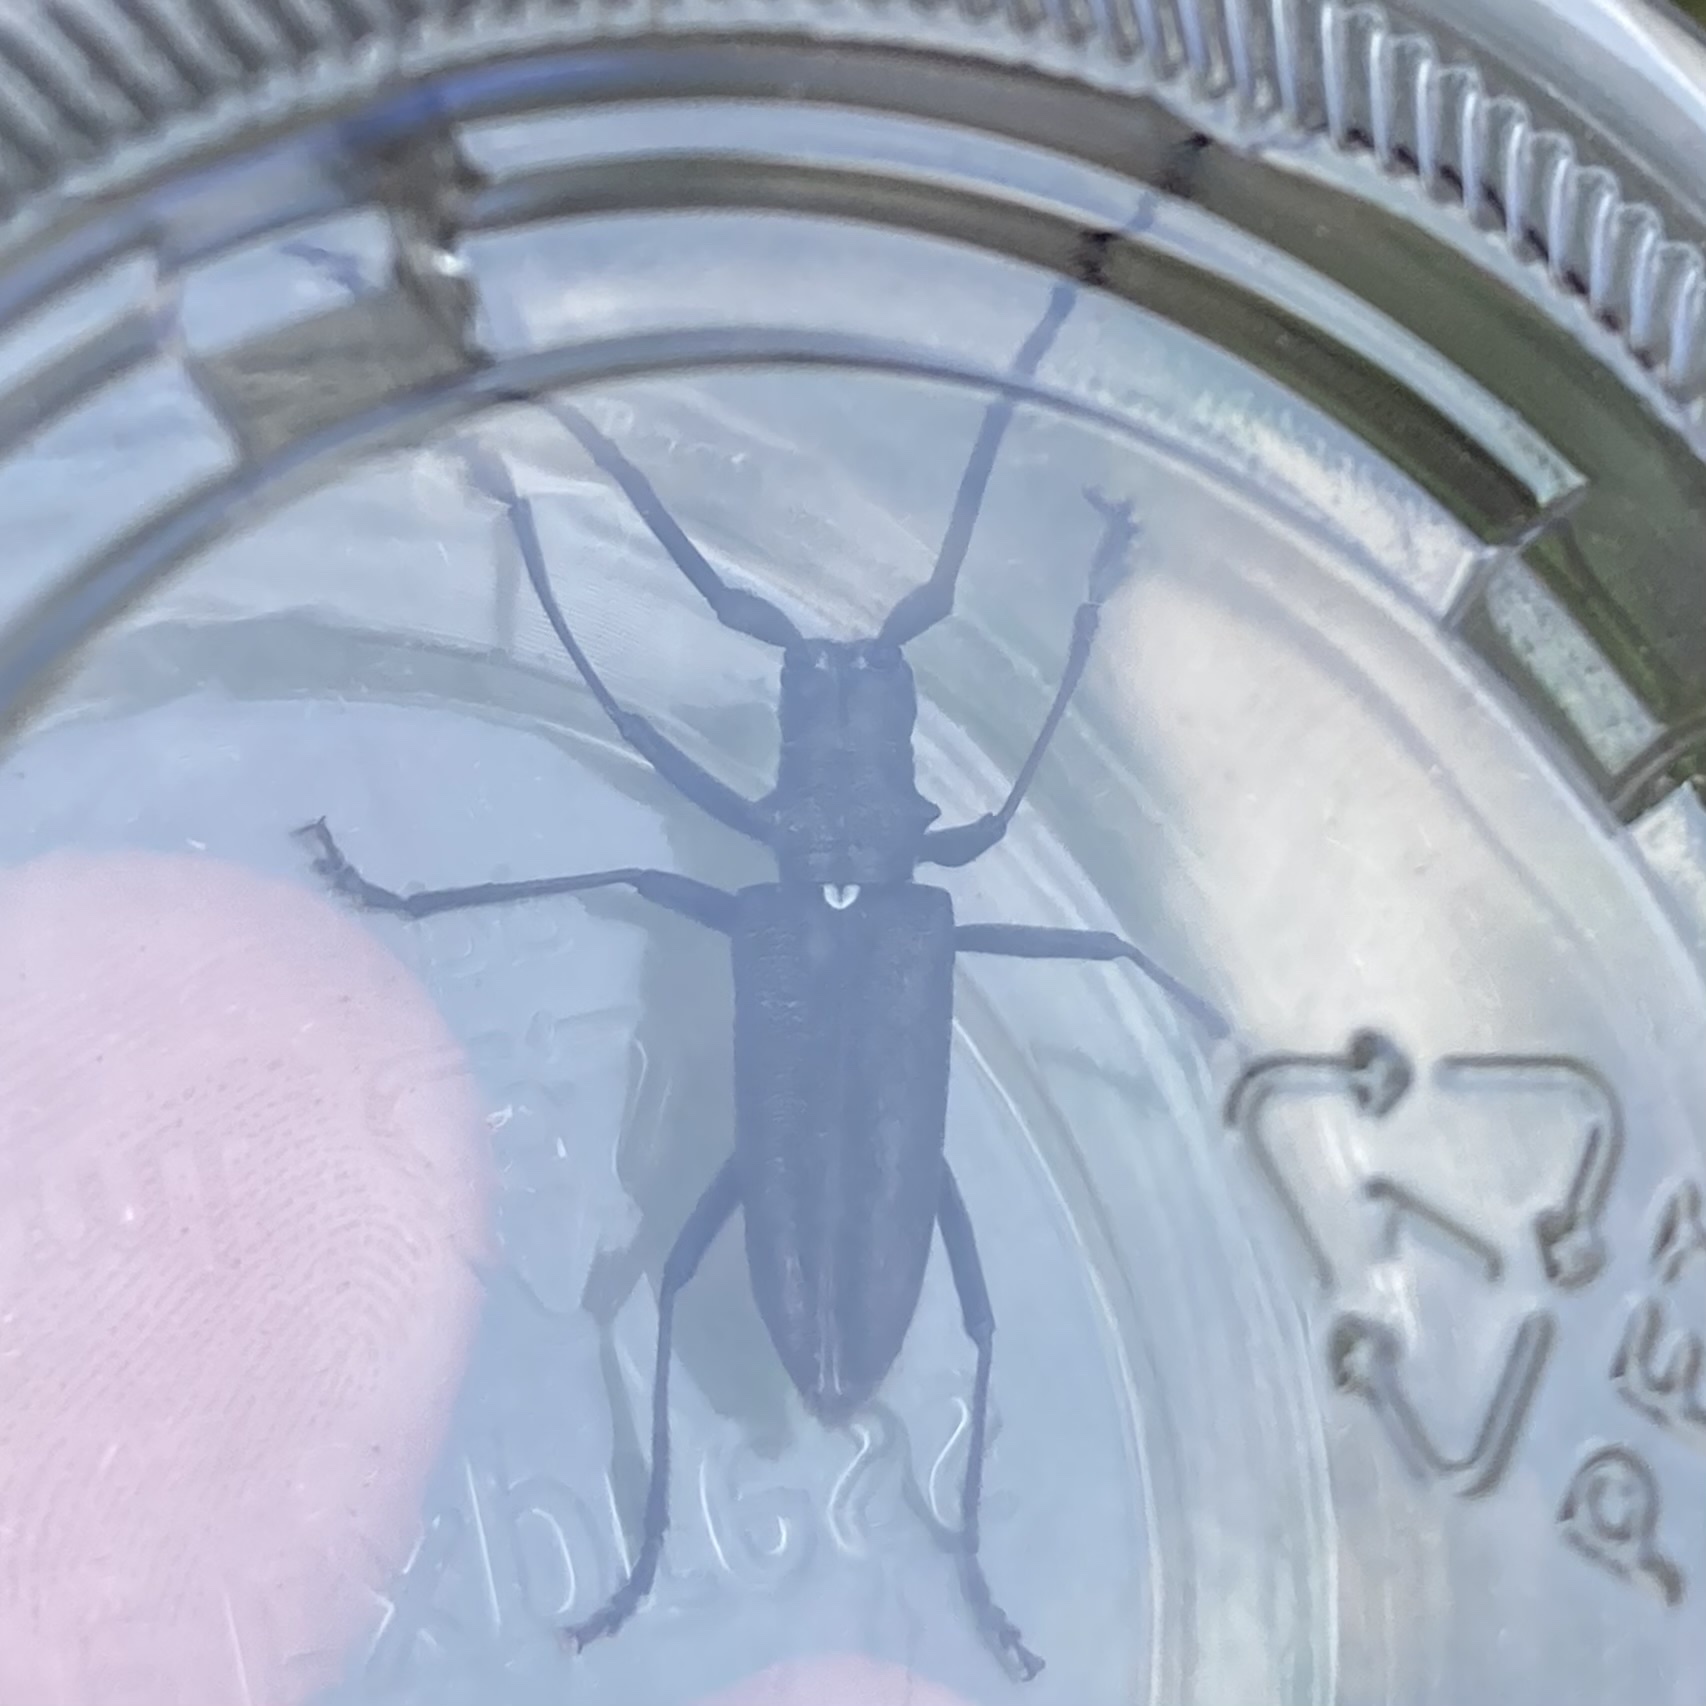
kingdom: Animalia
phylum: Arthropoda
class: Insecta
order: Coleoptera
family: Cerambycidae
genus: Monochamus
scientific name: Monochamus scutellatus
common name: White-spotted sawyer beetle
